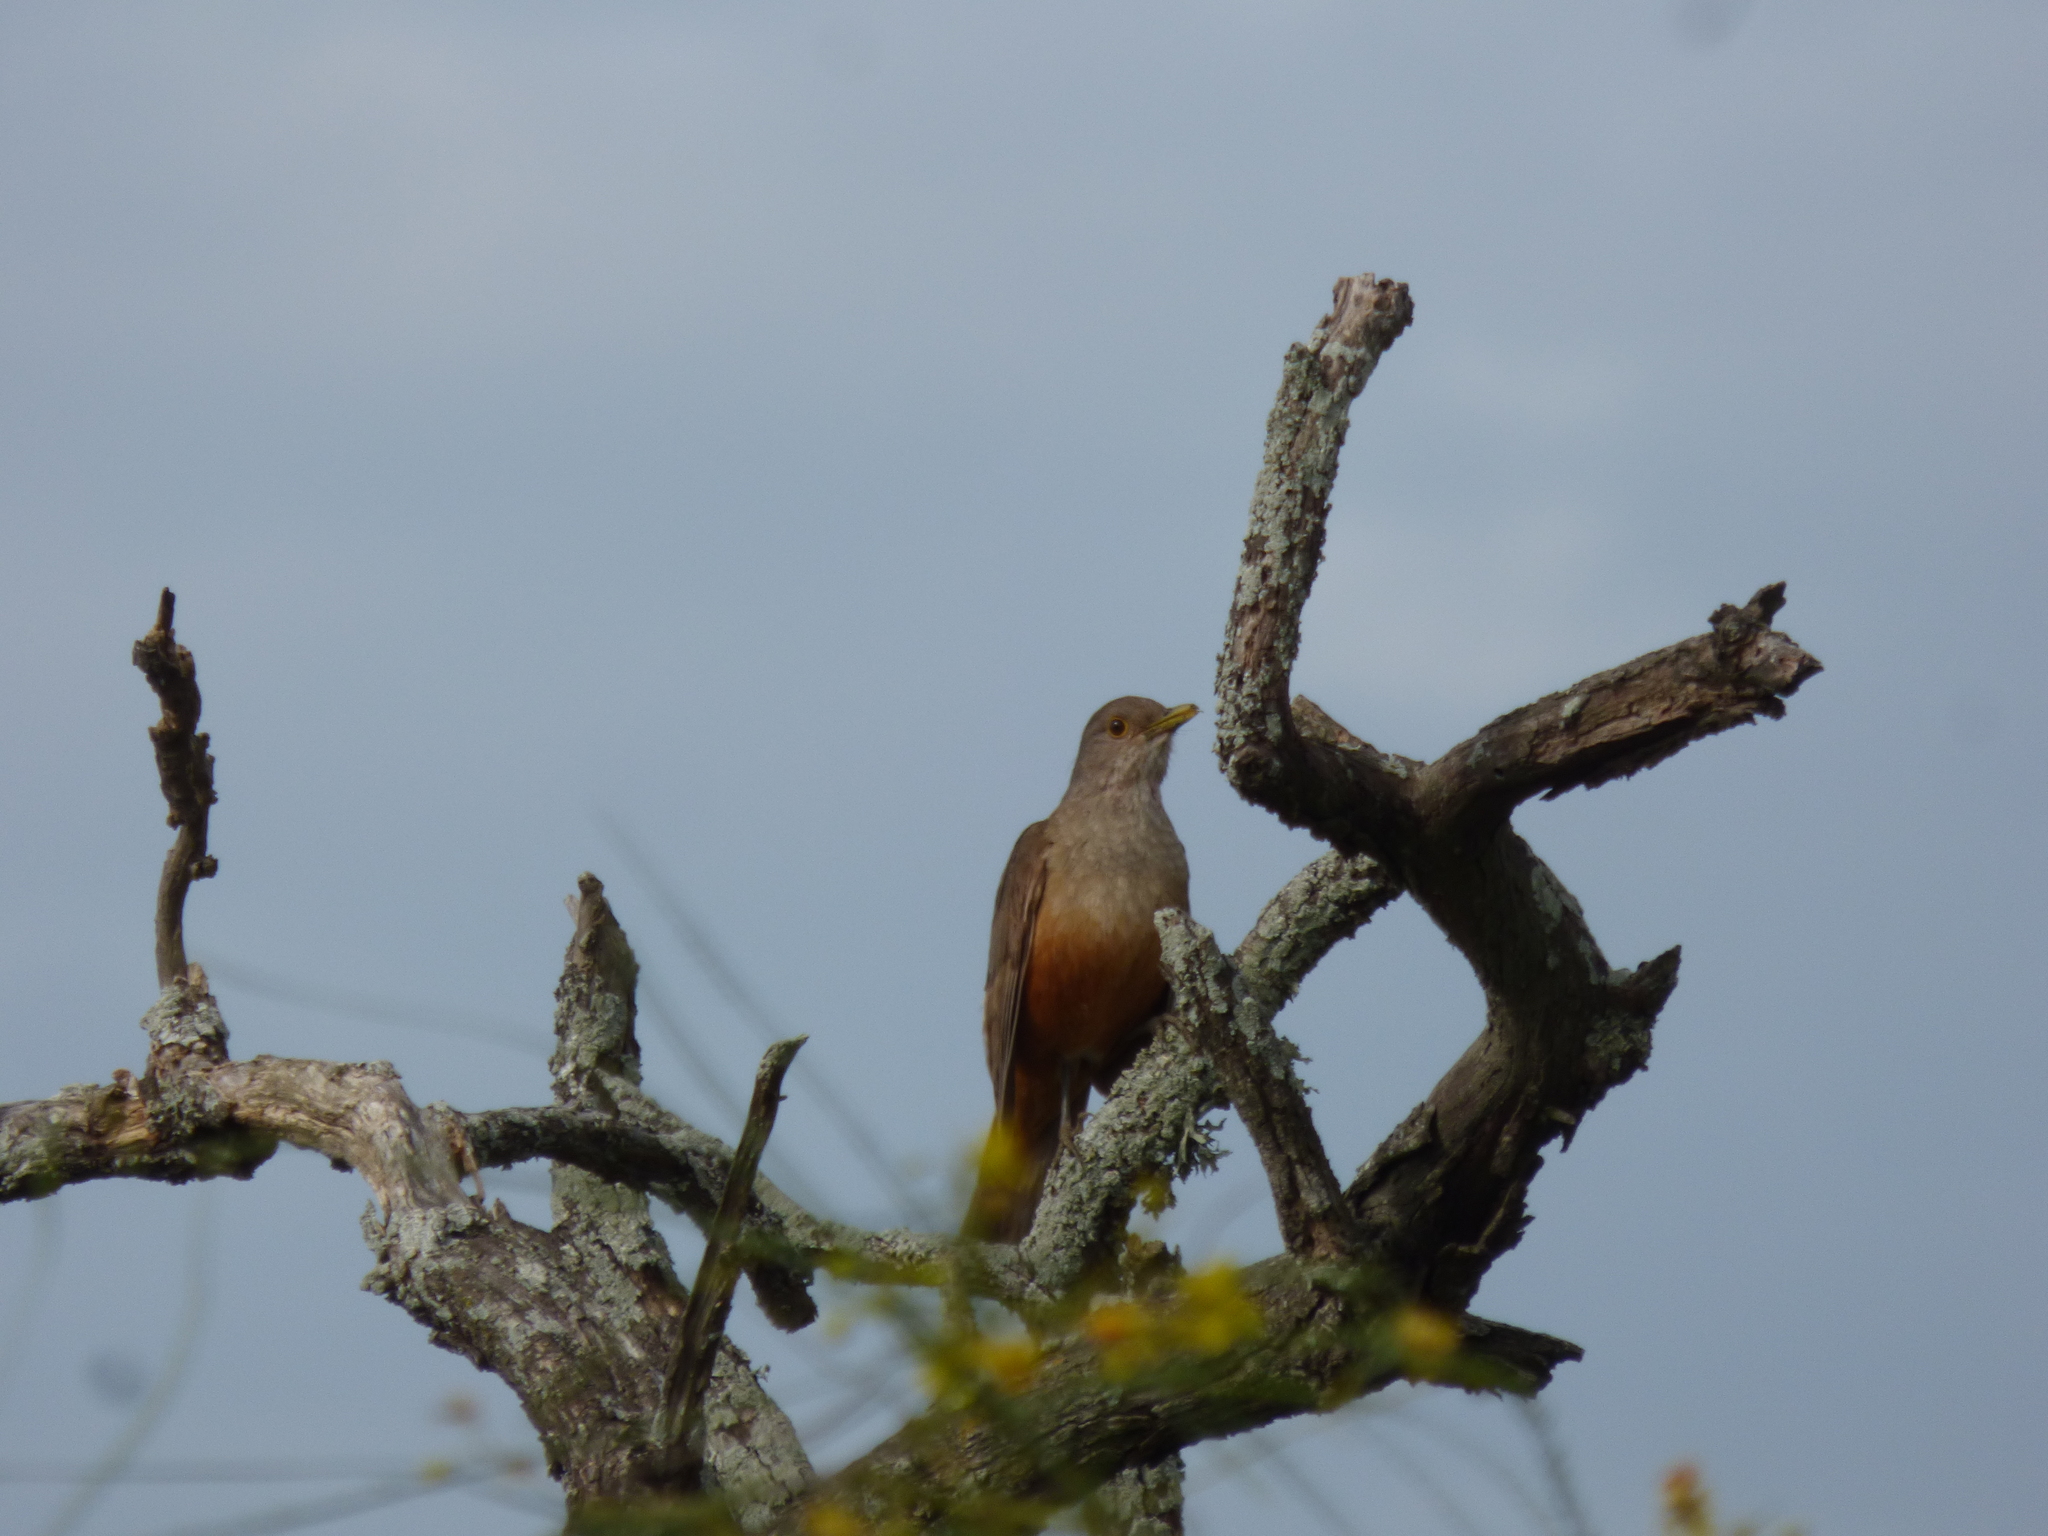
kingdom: Animalia
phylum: Chordata
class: Aves
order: Passeriformes
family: Turdidae
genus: Turdus
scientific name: Turdus rufiventris
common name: Rufous-bellied thrush
